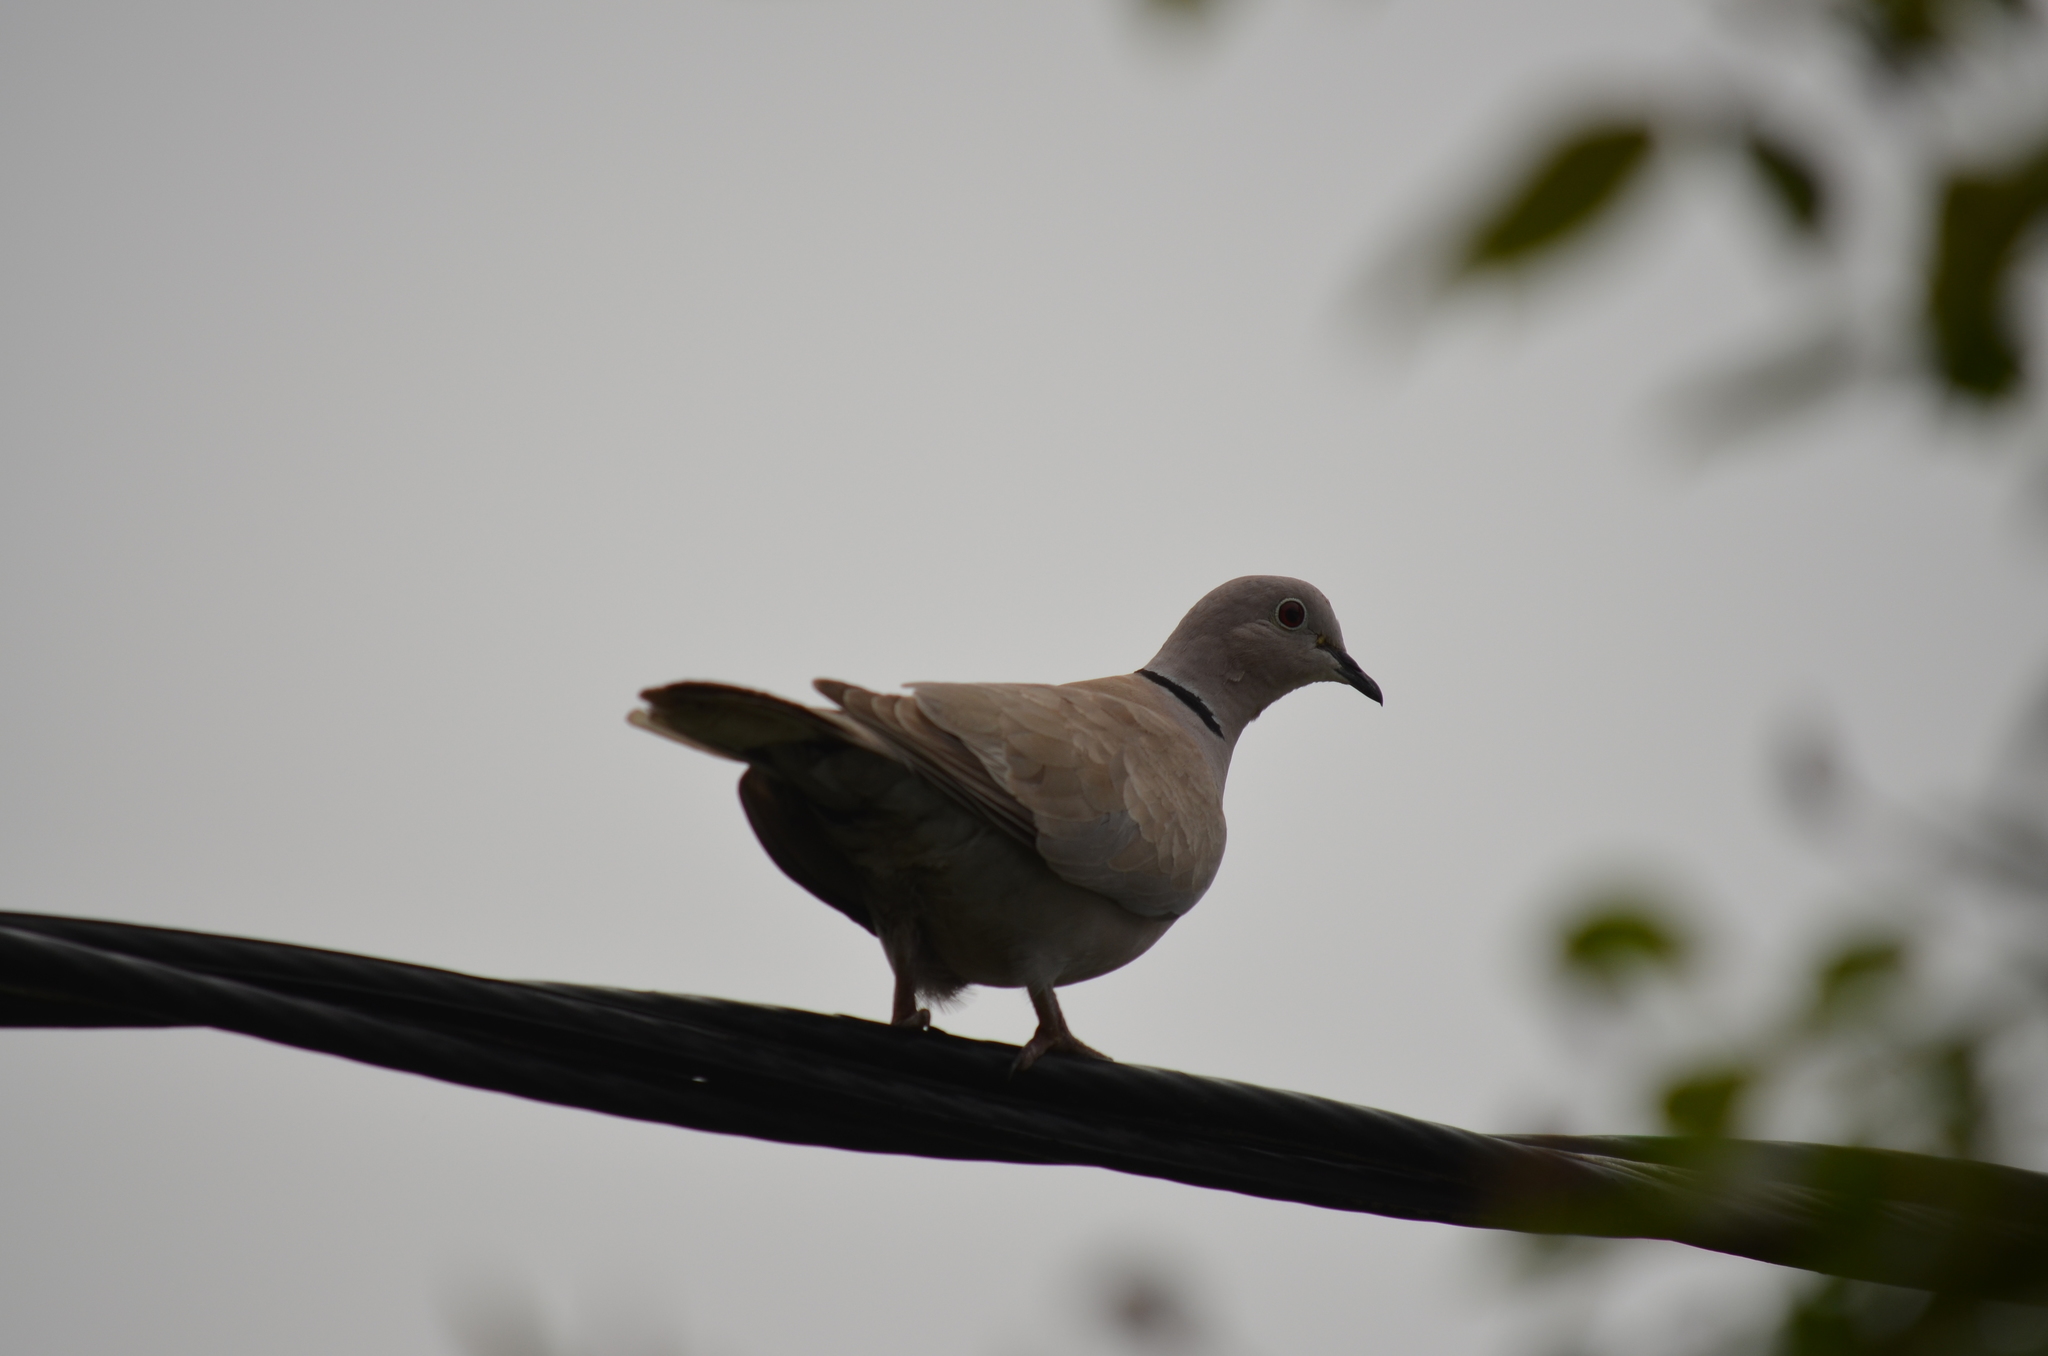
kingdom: Animalia
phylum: Chordata
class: Aves
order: Columbiformes
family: Columbidae
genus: Streptopelia
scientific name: Streptopelia decaocto
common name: Eurasian collared dove
